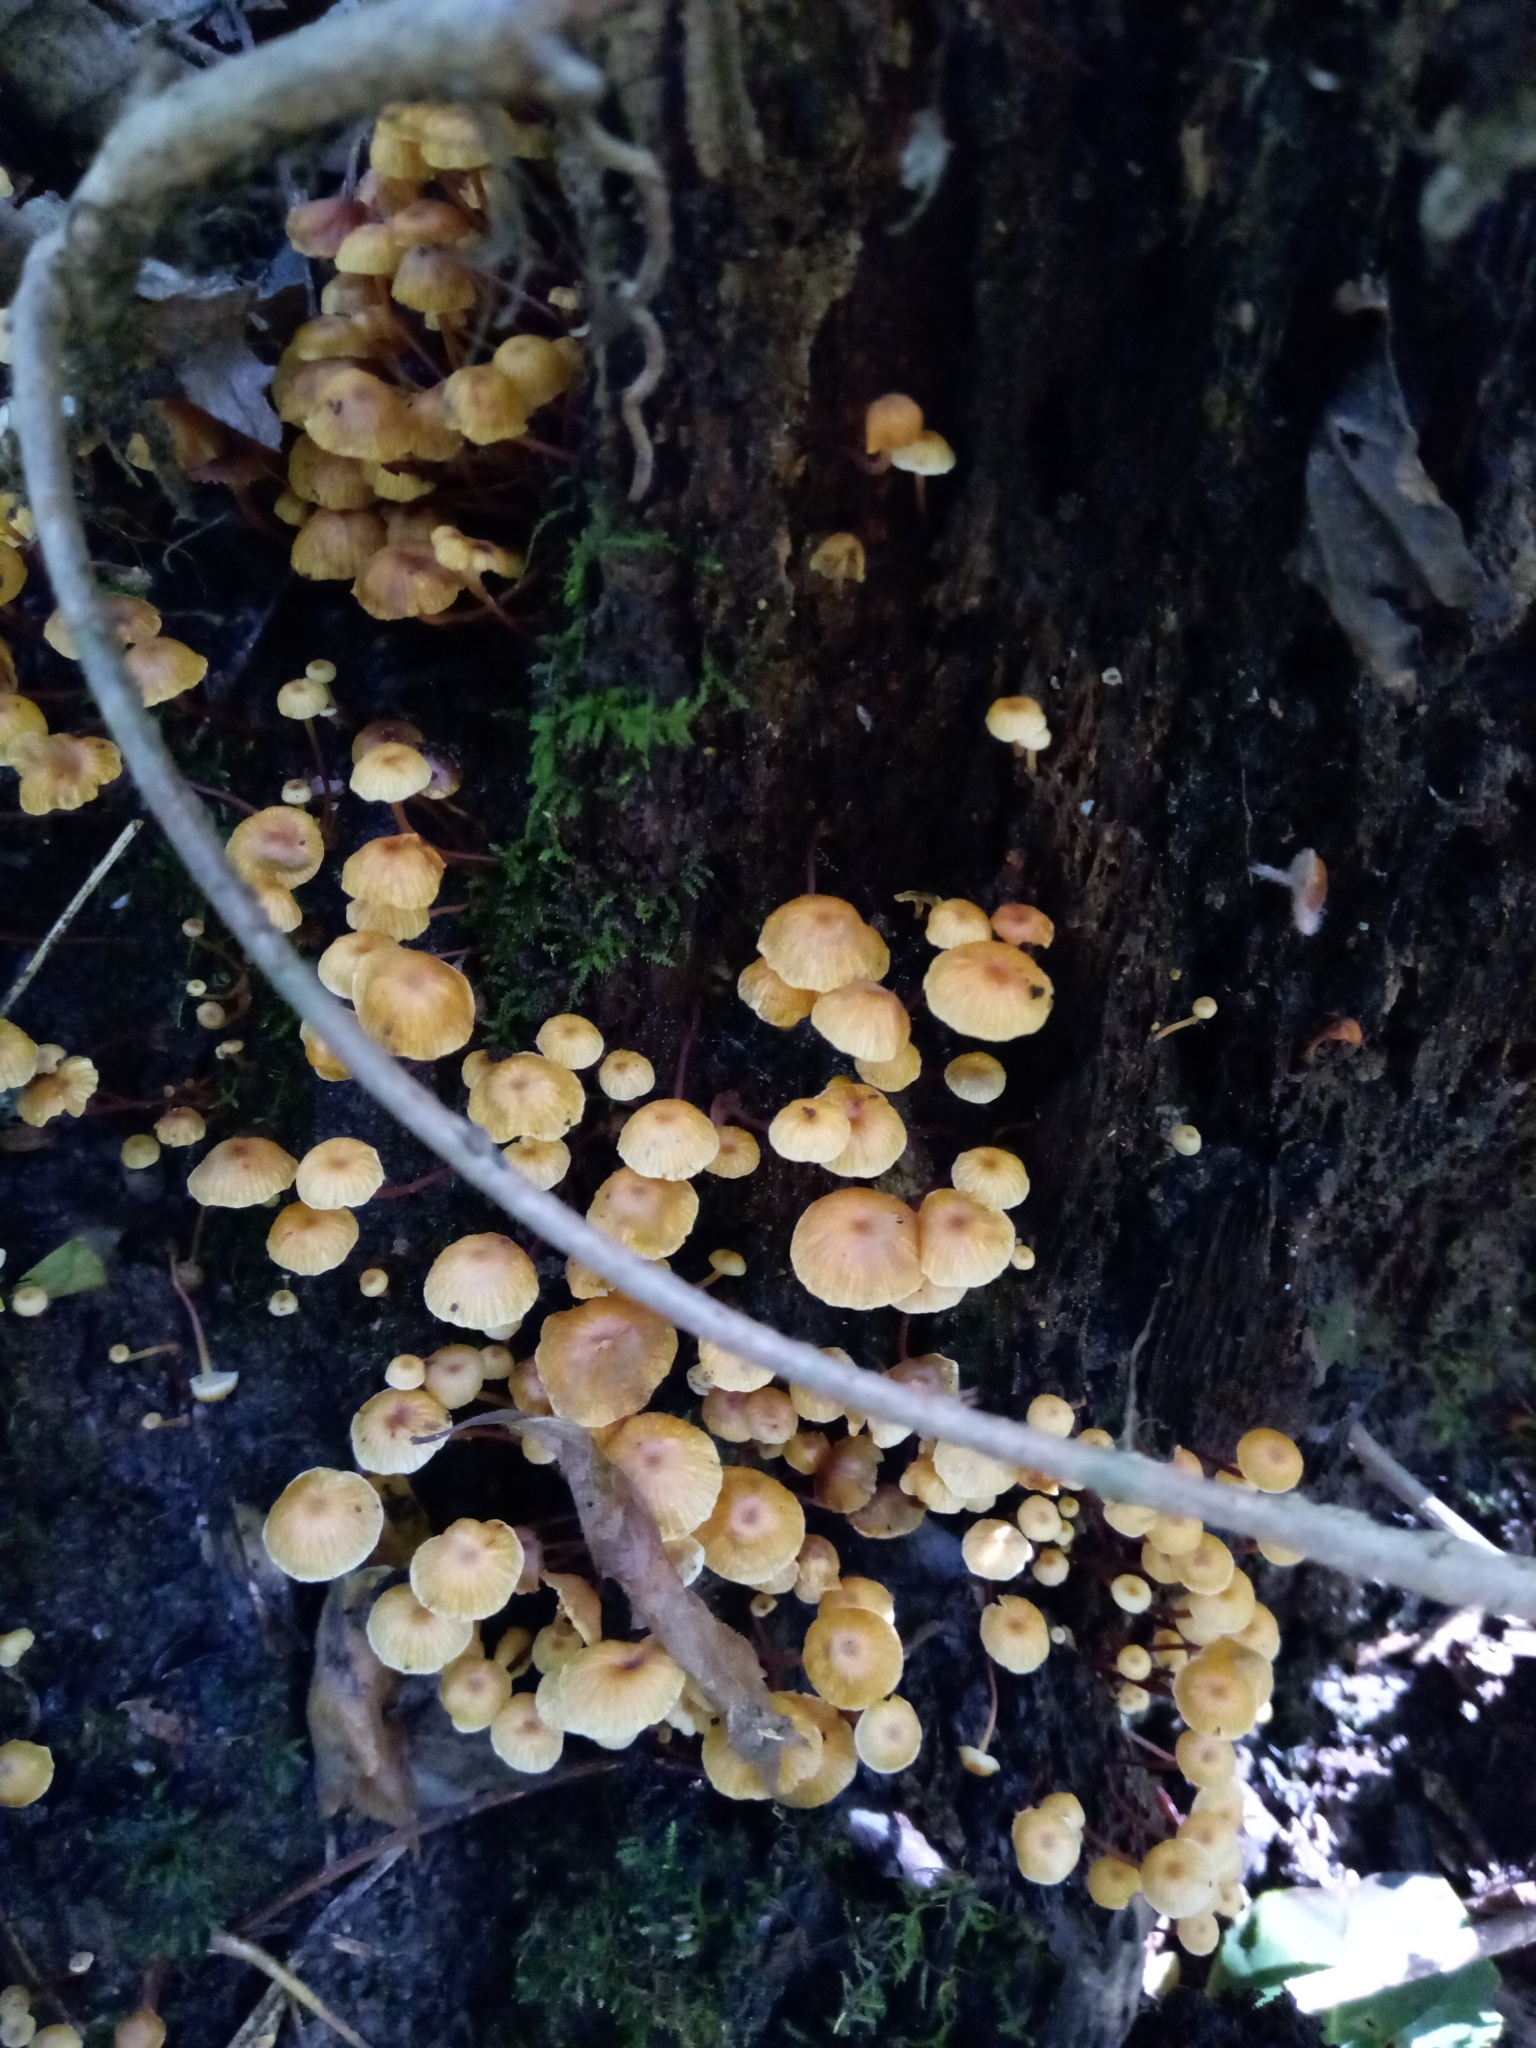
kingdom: Fungi
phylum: Basidiomycota
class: Agaricomycetes
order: Agaricales
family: Mycenaceae
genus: Xeromphalina
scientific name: Xeromphalina kauffmanii
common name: Cross-veined troop mushroom
